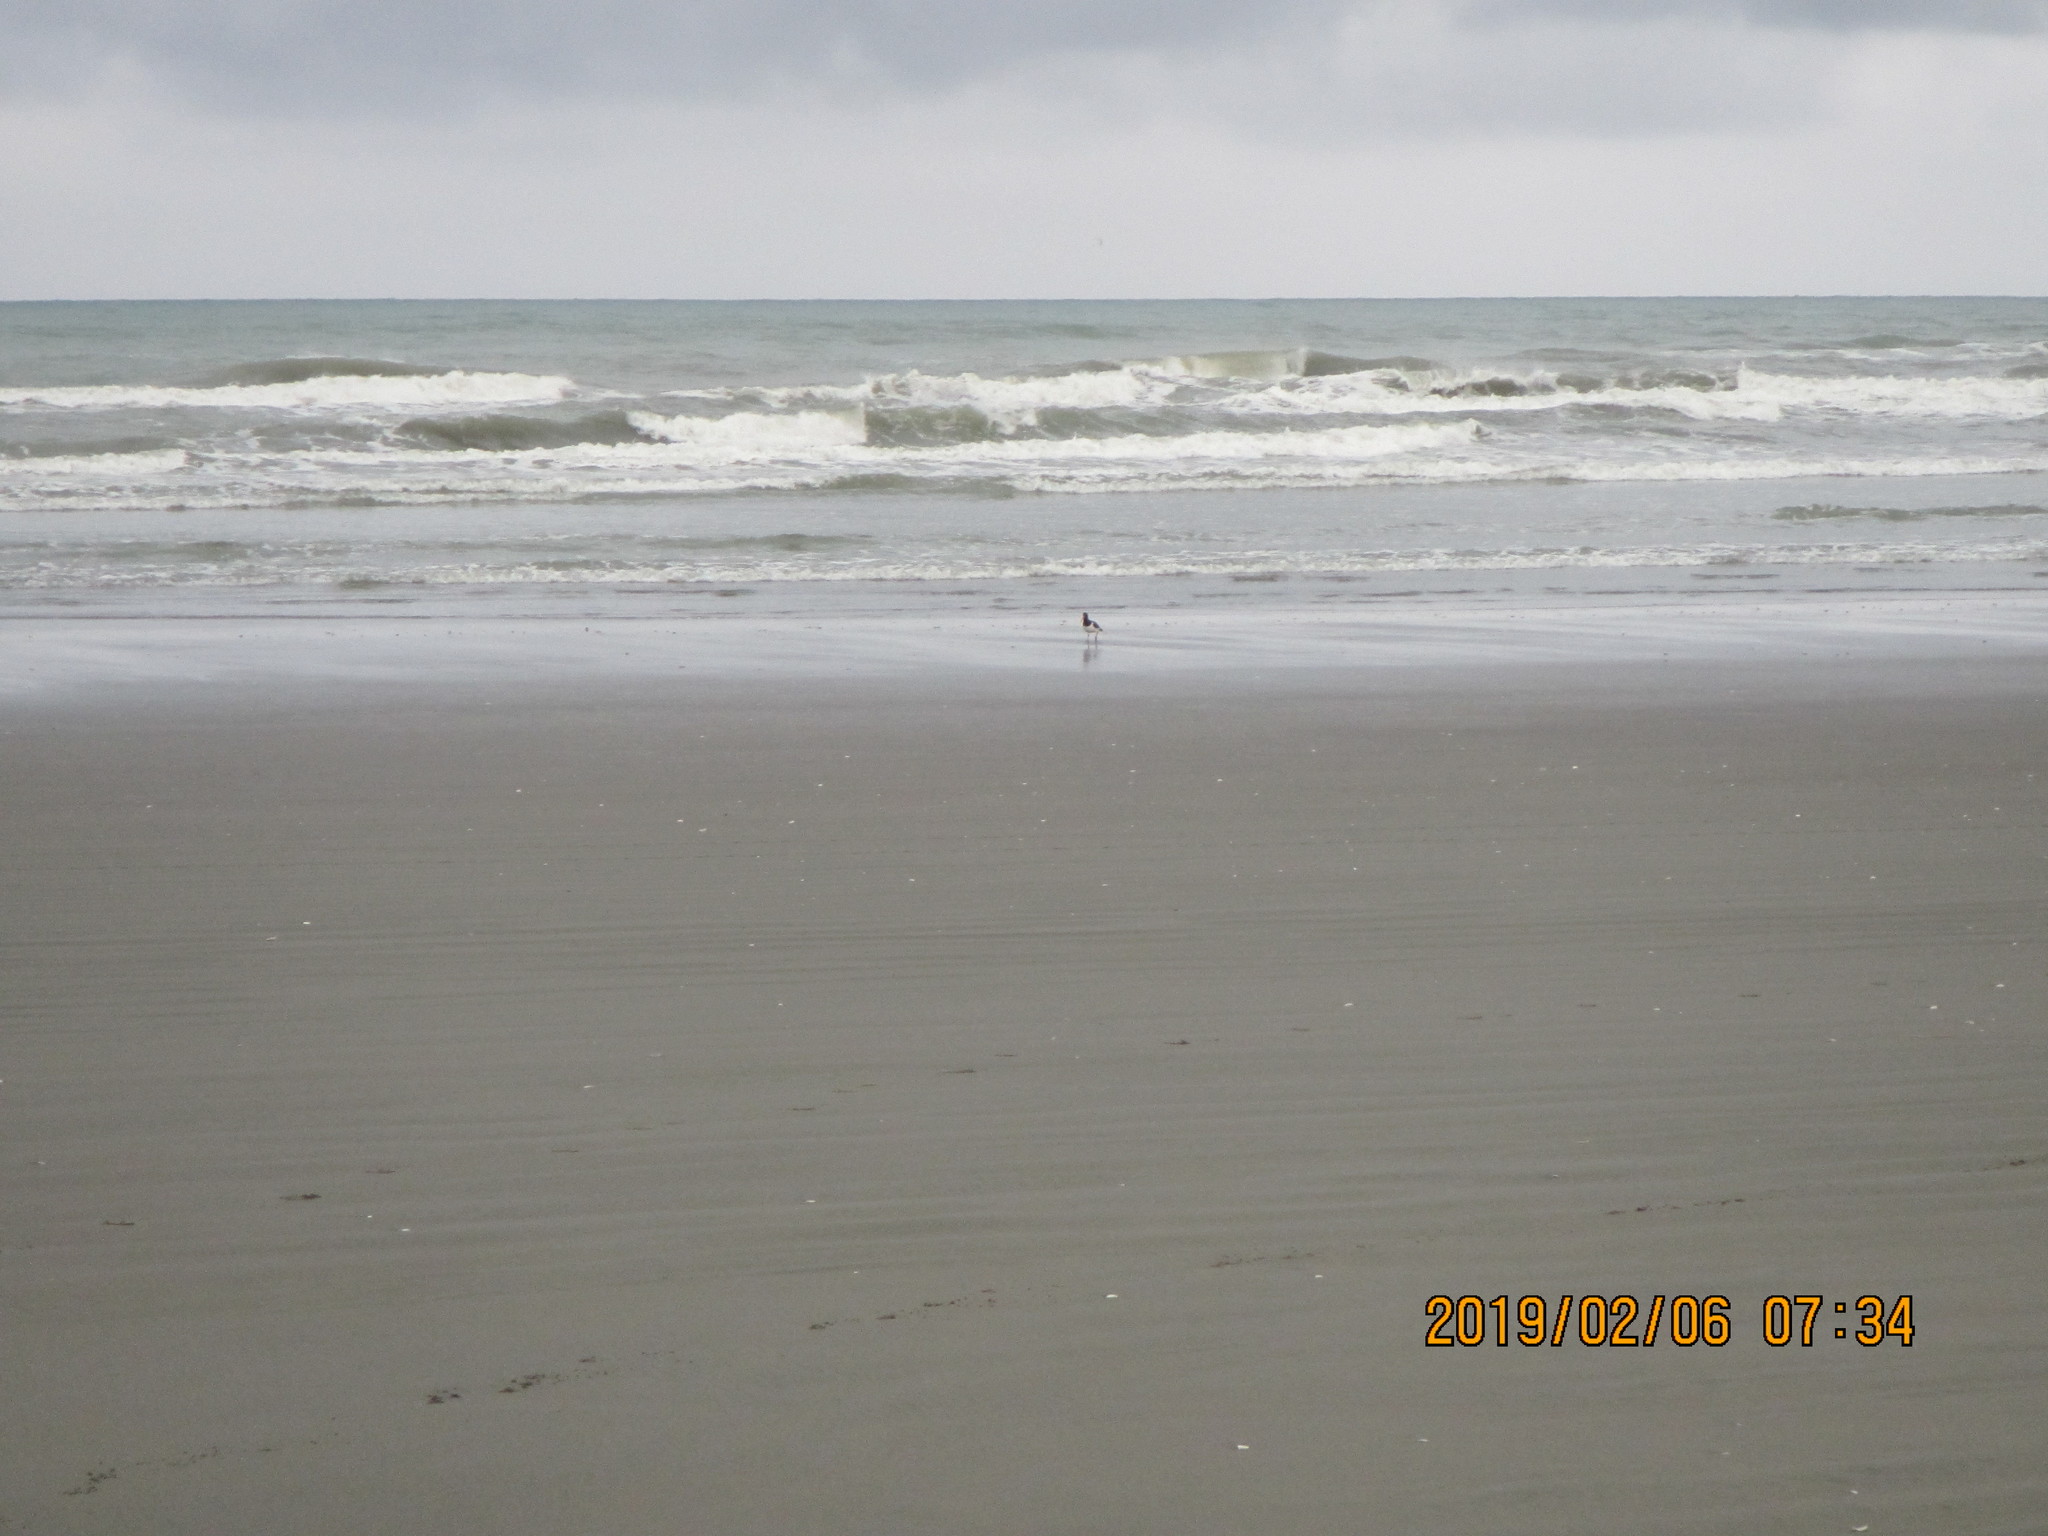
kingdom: Animalia
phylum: Chordata
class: Aves
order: Charadriiformes
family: Haematopodidae
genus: Haematopus
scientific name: Haematopus finschi
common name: South island oystercatcher
